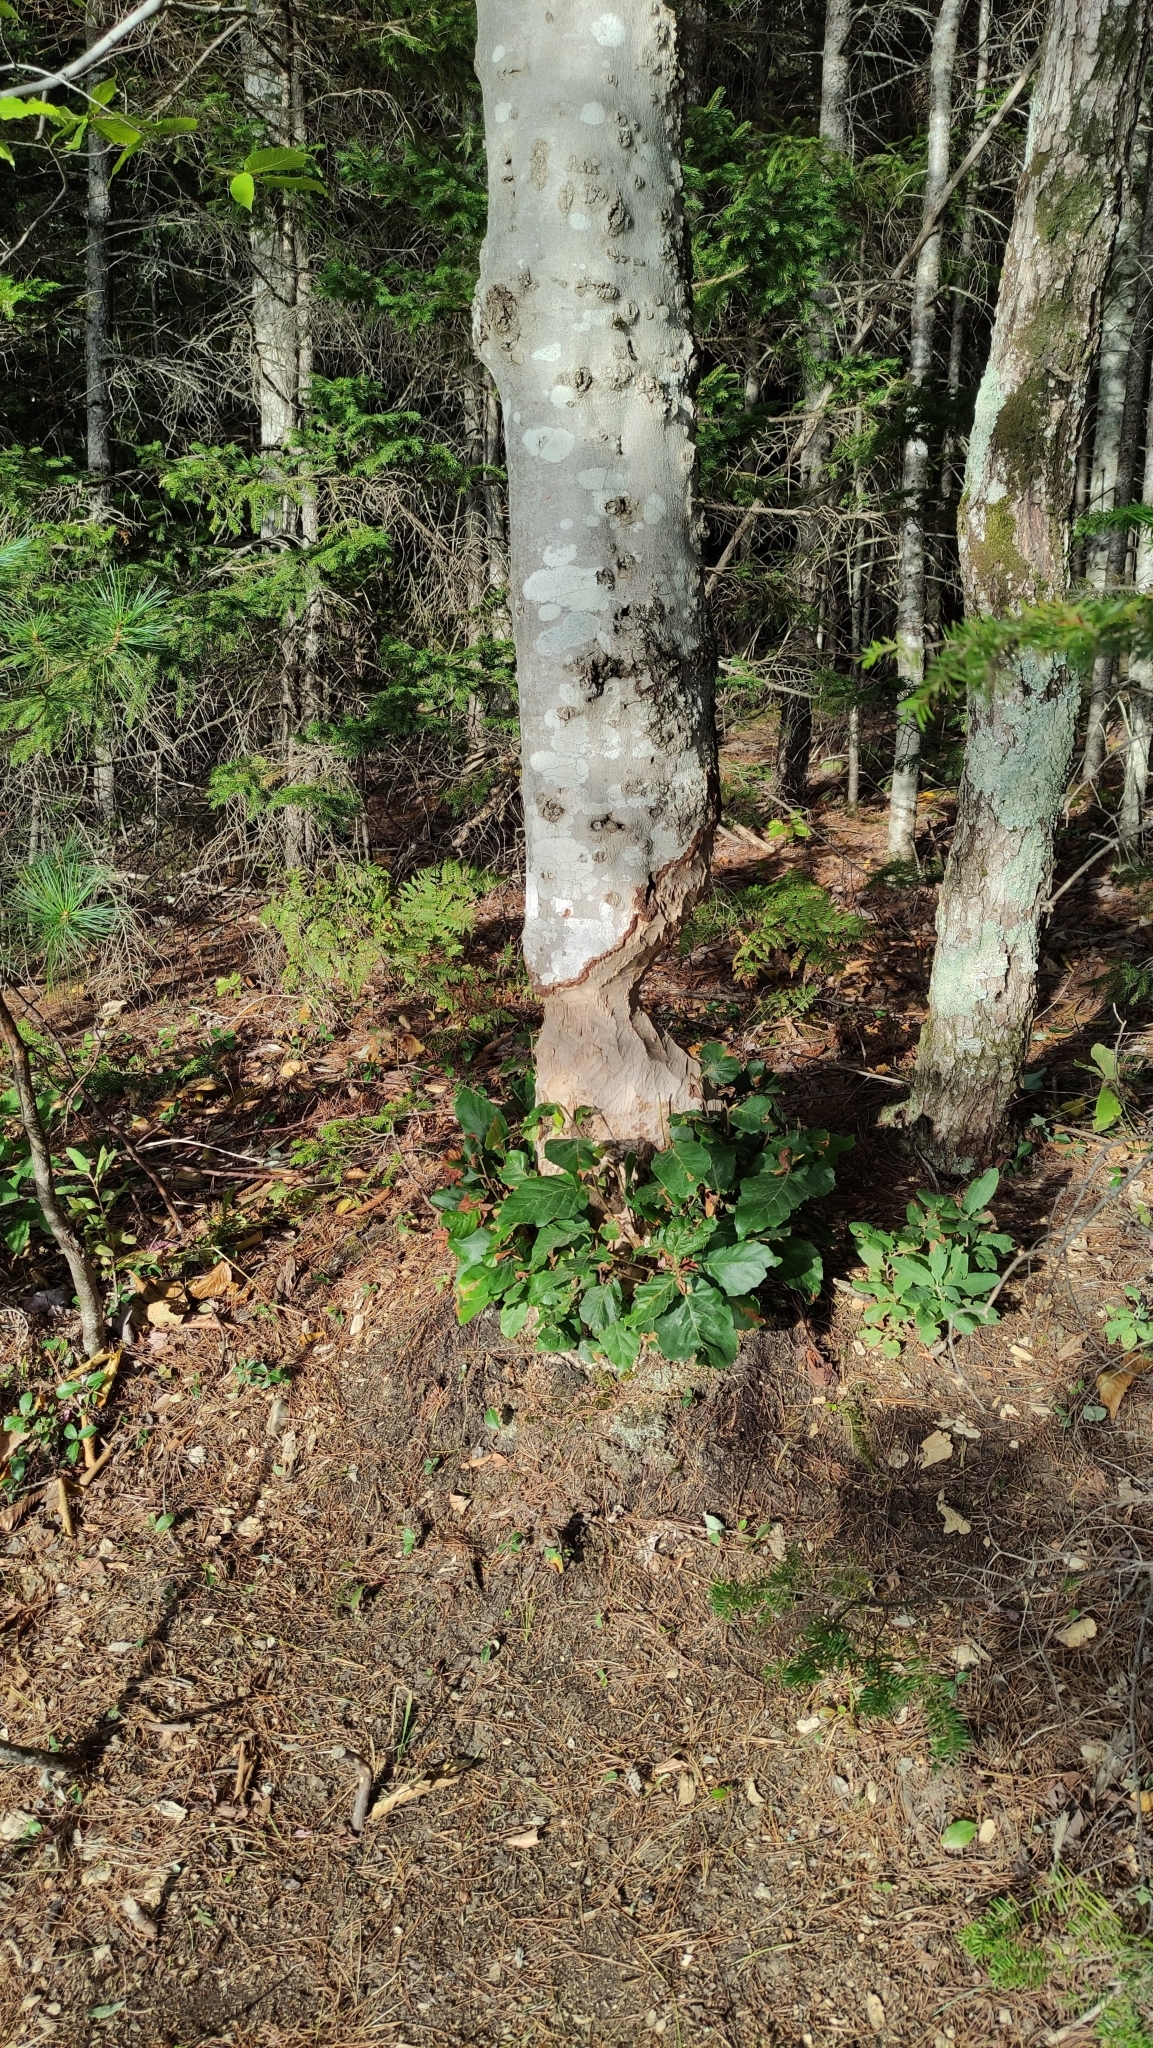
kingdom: Animalia
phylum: Chordata
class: Mammalia
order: Rodentia
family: Castoridae
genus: Castor
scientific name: Castor canadensis
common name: American beaver
